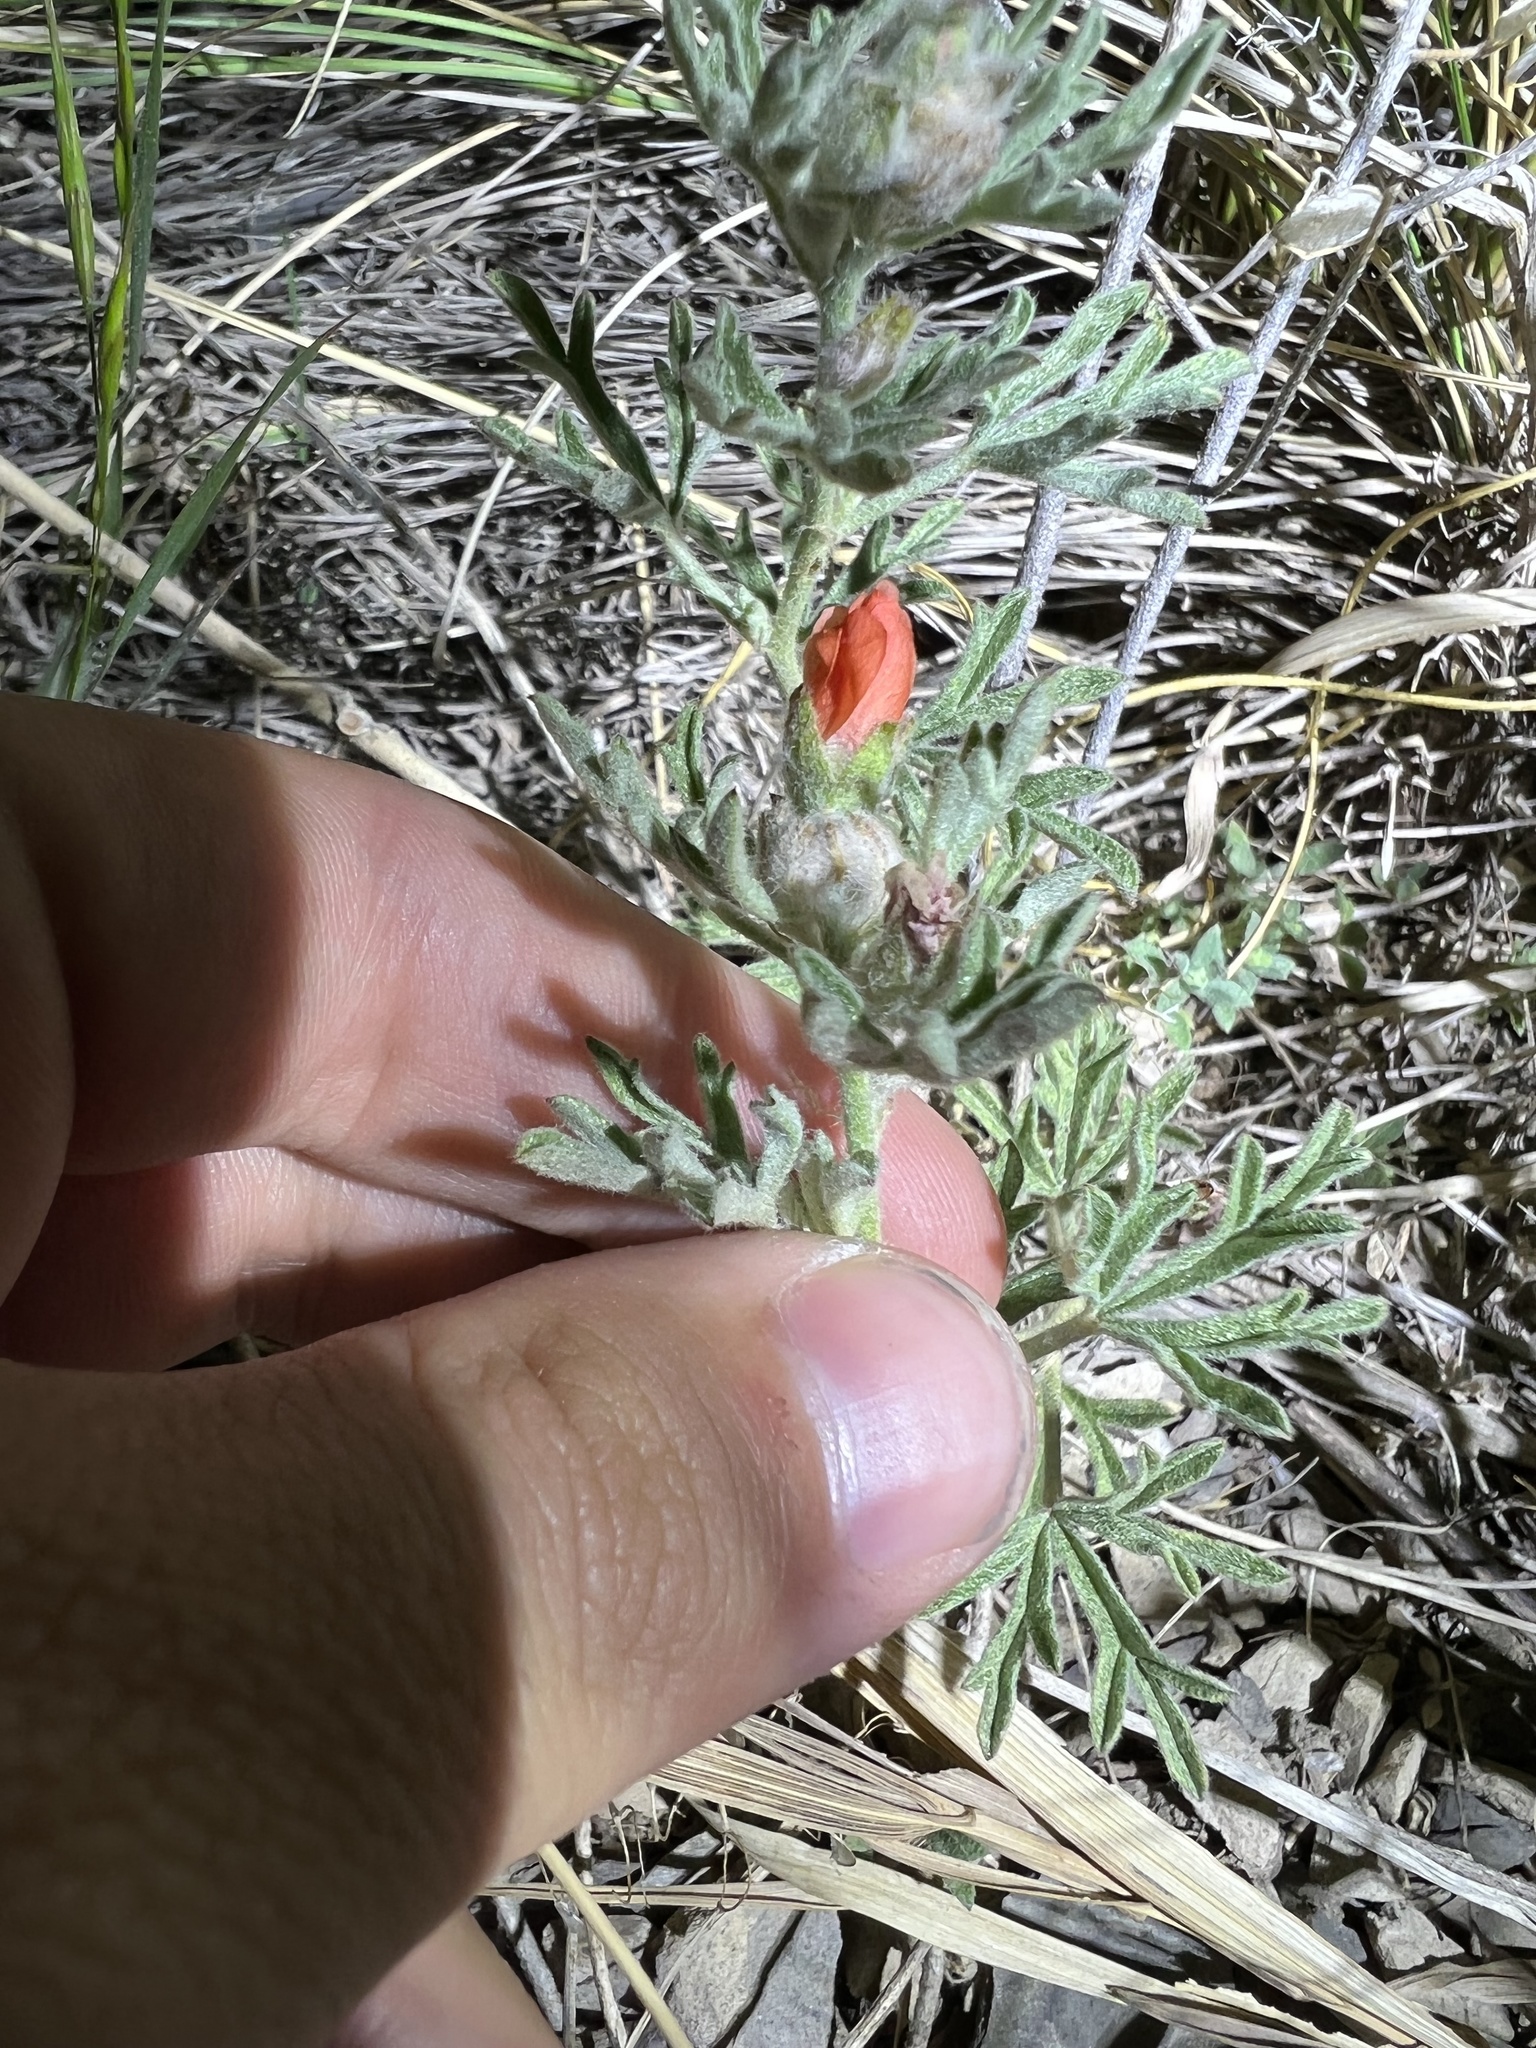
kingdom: Plantae
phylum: Tracheophyta
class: Magnoliopsida
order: Malvales
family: Malvaceae
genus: Sphaeralcea
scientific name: Sphaeralcea coccinea
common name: Moss-rose
